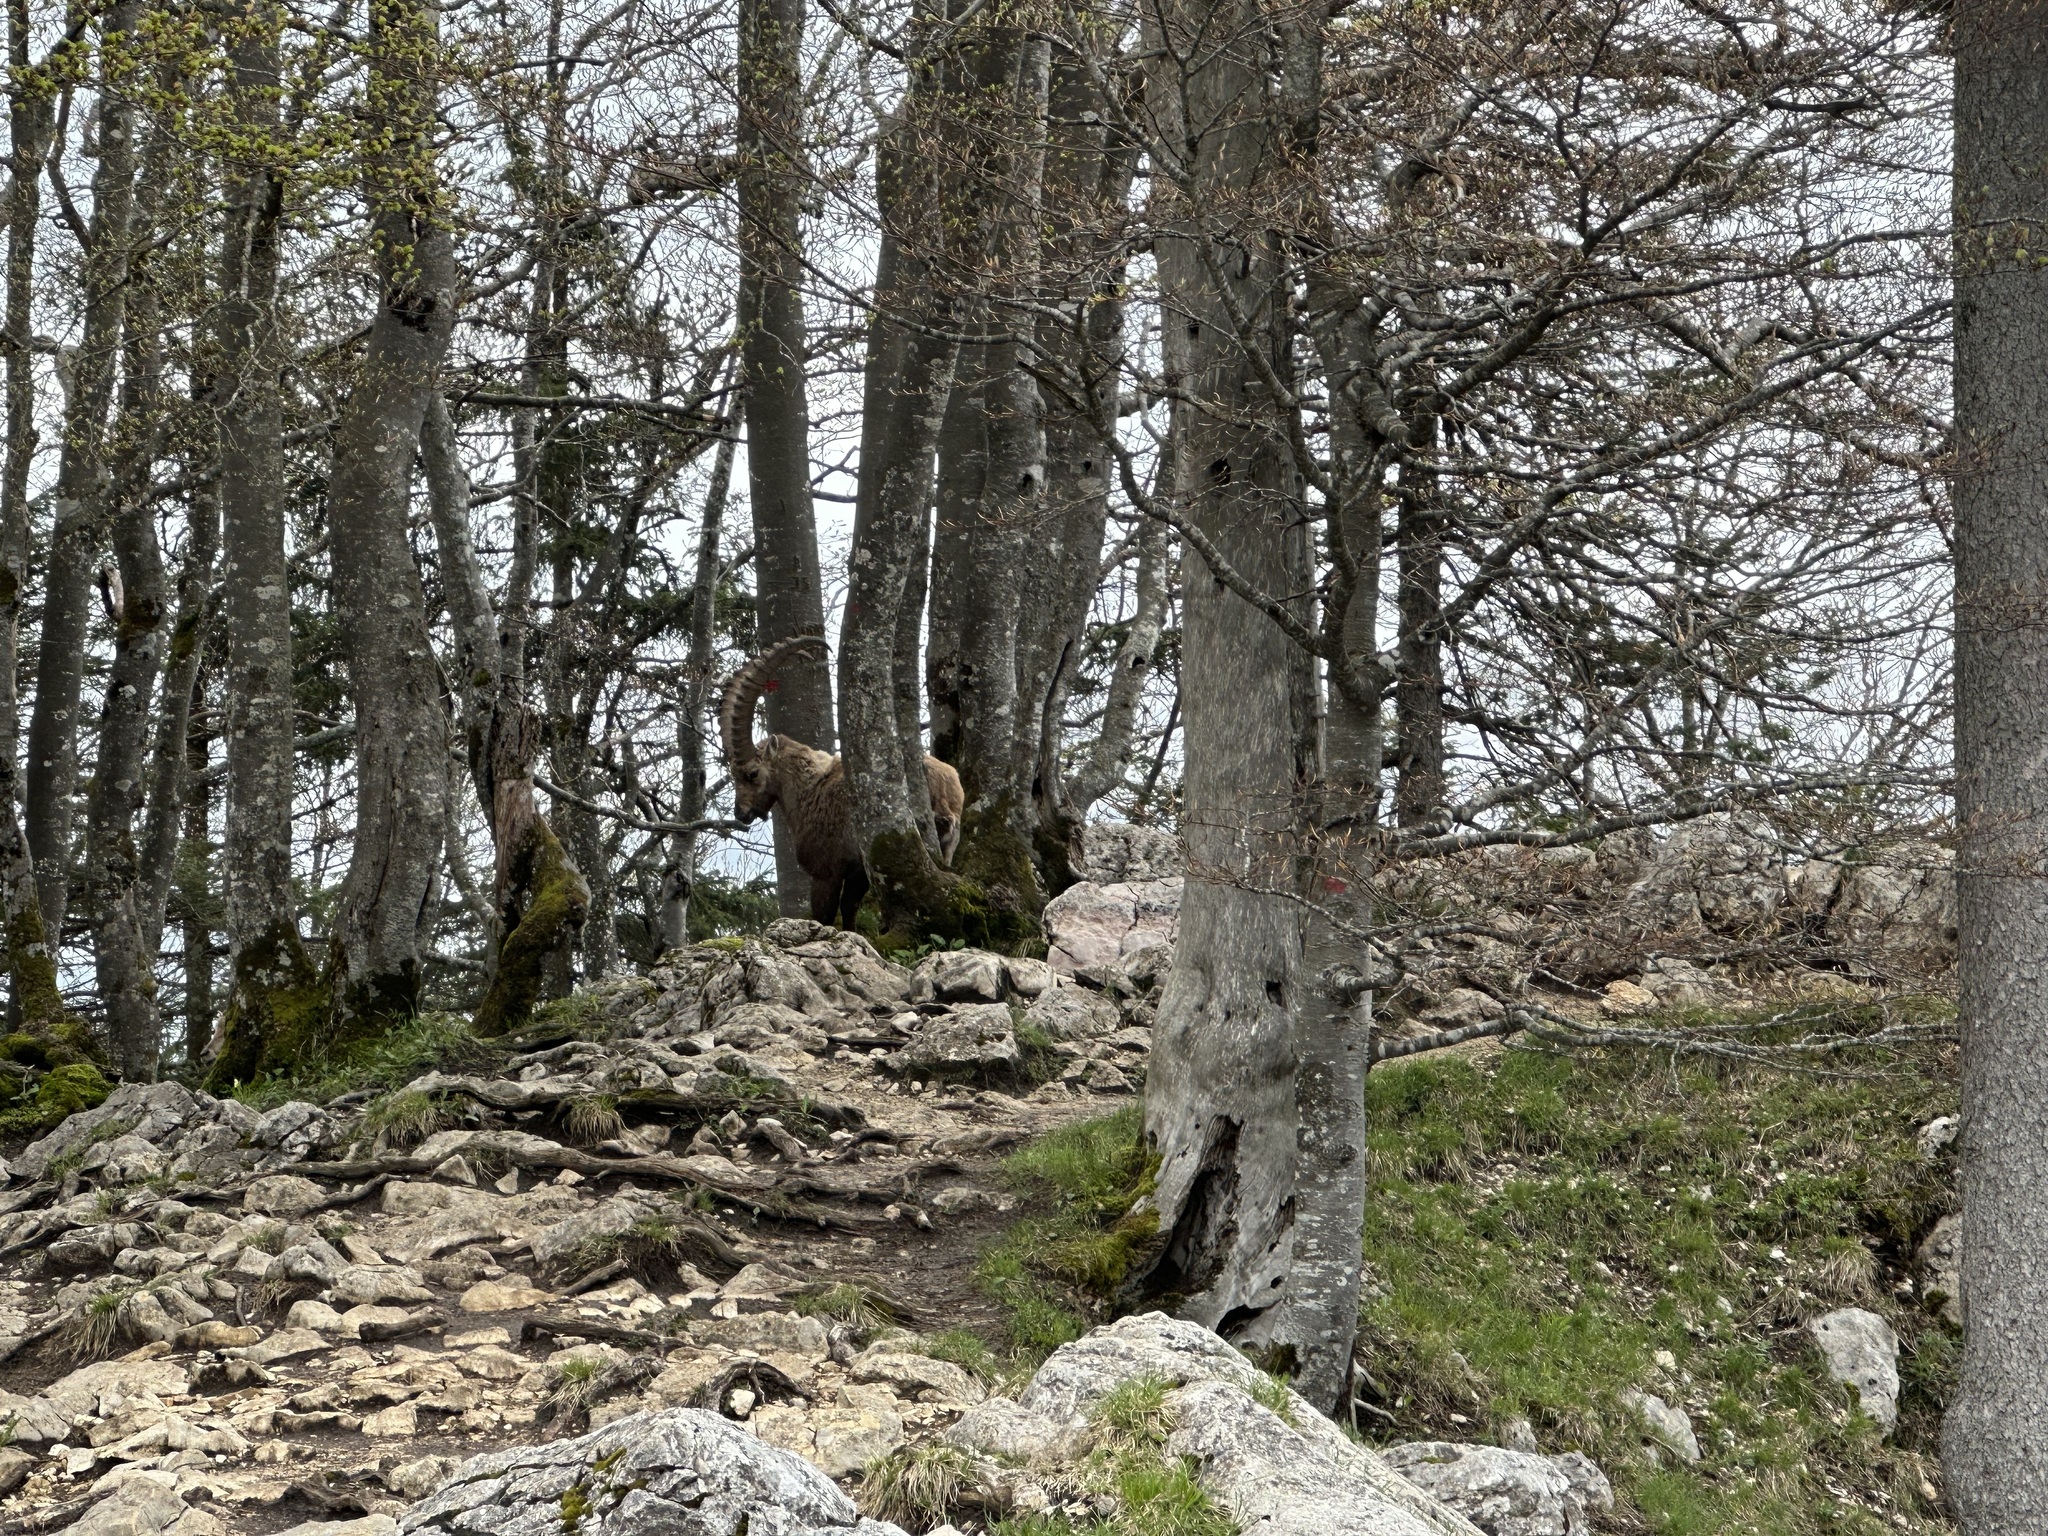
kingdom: Animalia
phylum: Chordata
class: Mammalia
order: Artiodactyla
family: Bovidae
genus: Capra
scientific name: Capra ibex
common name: Alpine ibex
